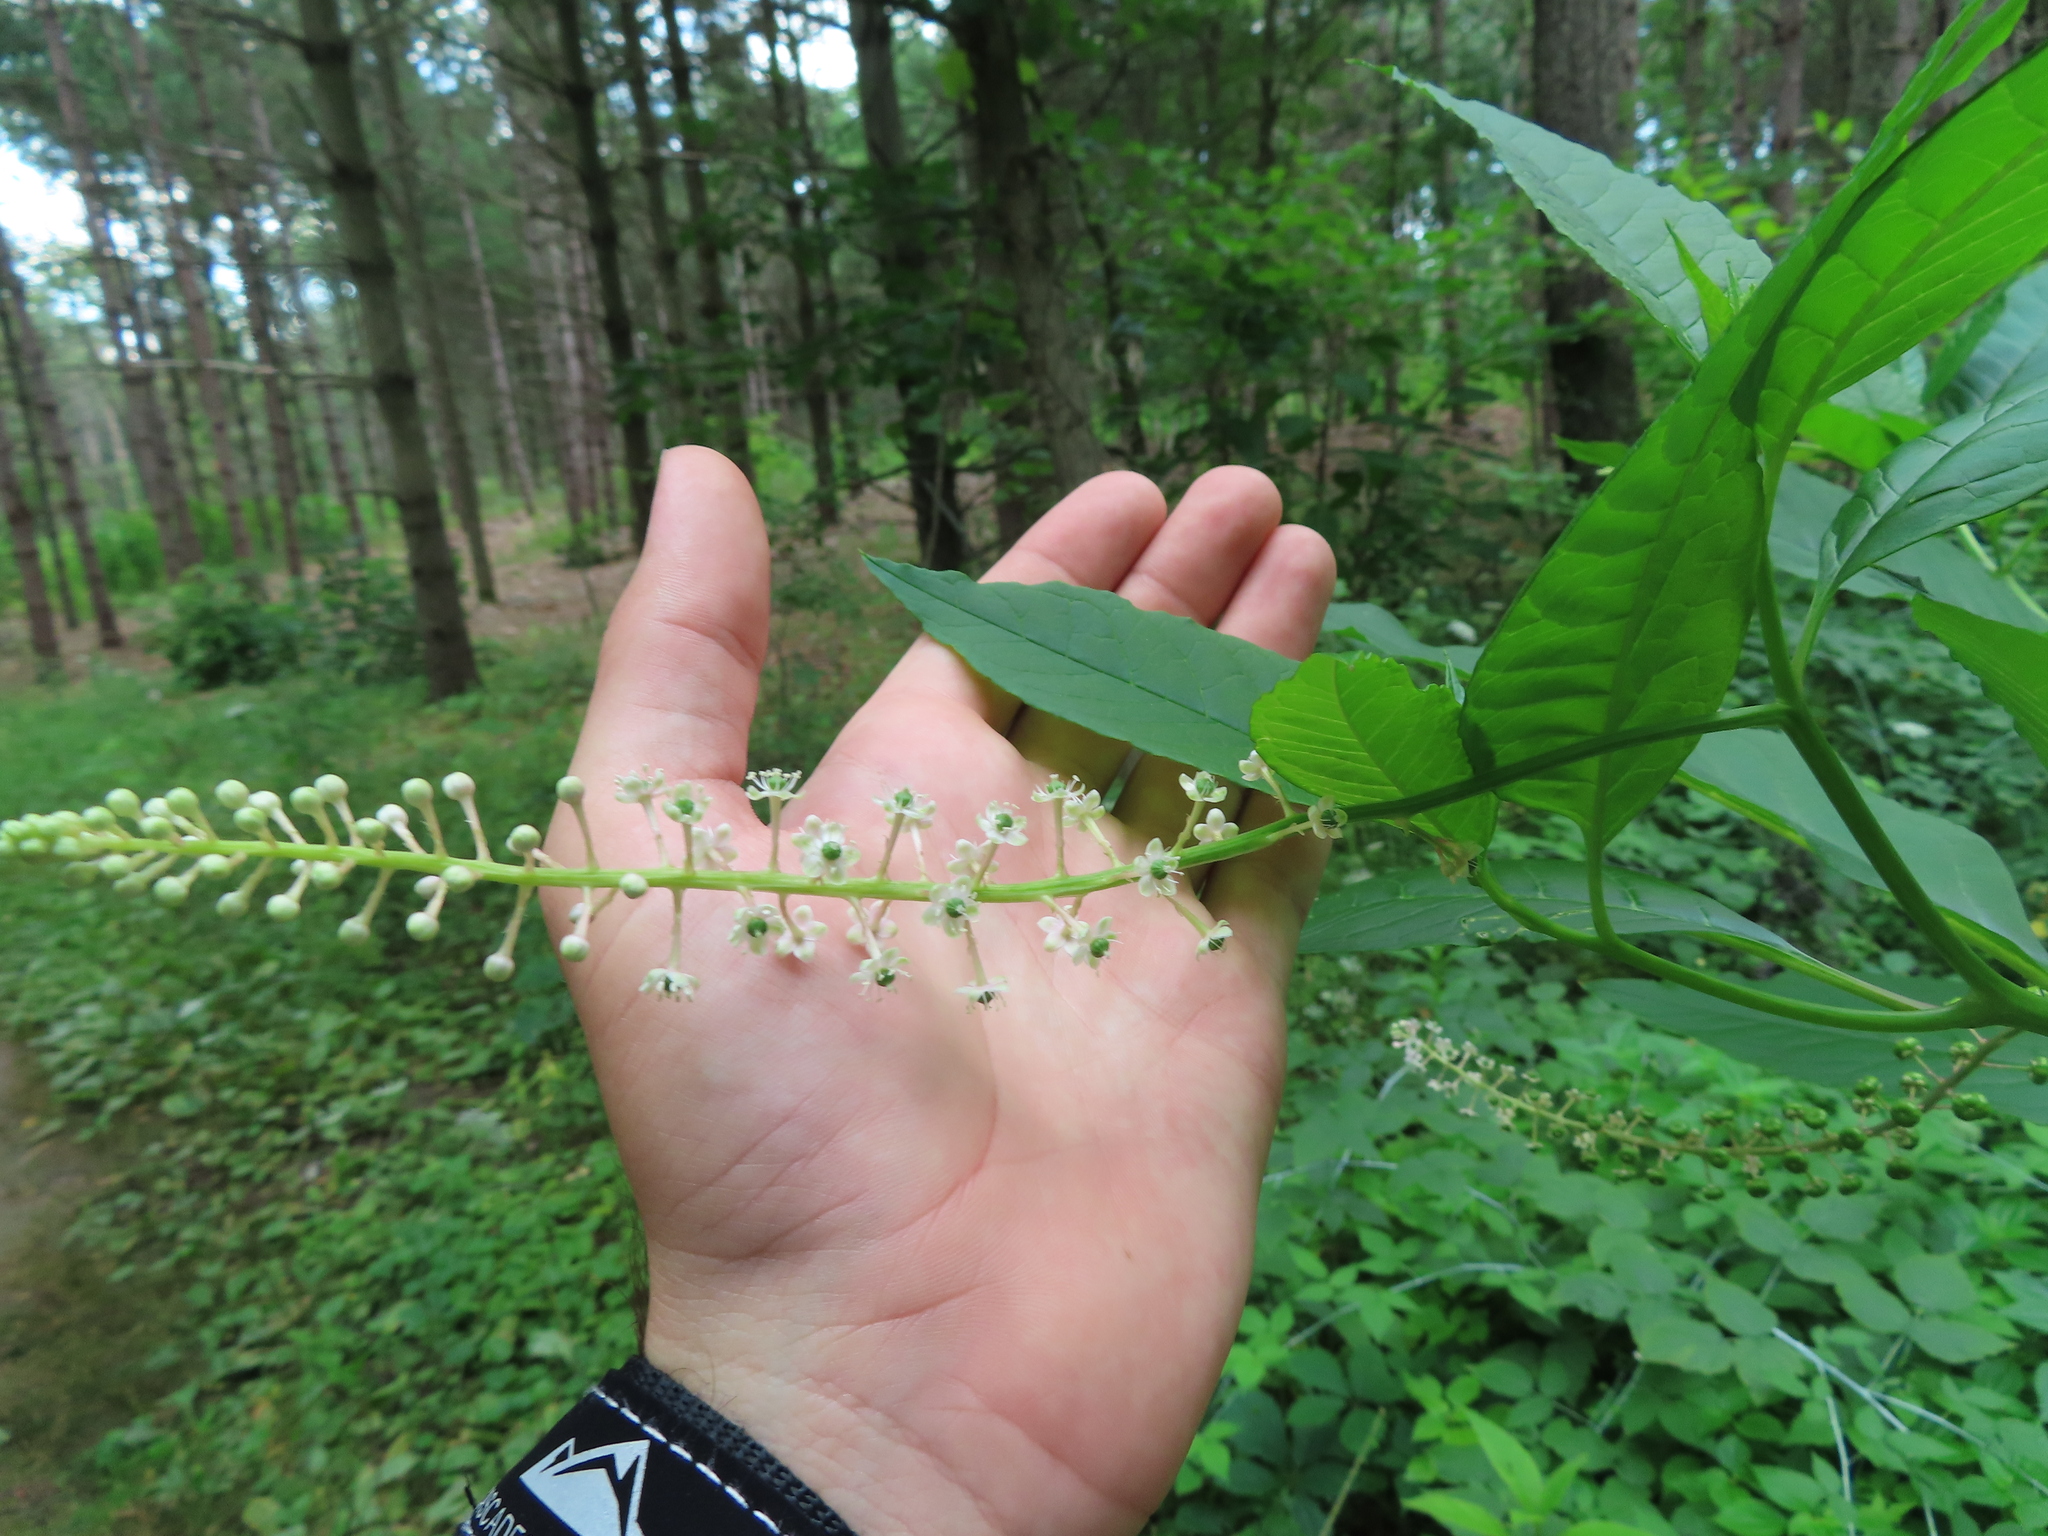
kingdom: Plantae
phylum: Tracheophyta
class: Magnoliopsida
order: Caryophyllales
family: Phytolaccaceae
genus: Phytolacca
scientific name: Phytolacca americana
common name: American pokeweed
